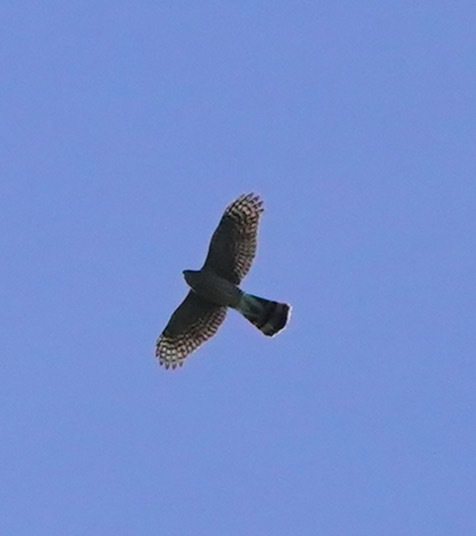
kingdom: Animalia
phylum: Chordata
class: Aves
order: Accipitriformes
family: Accipitridae
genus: Accipiter
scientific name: Accipiter cooperii
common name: Cooper's hawk
